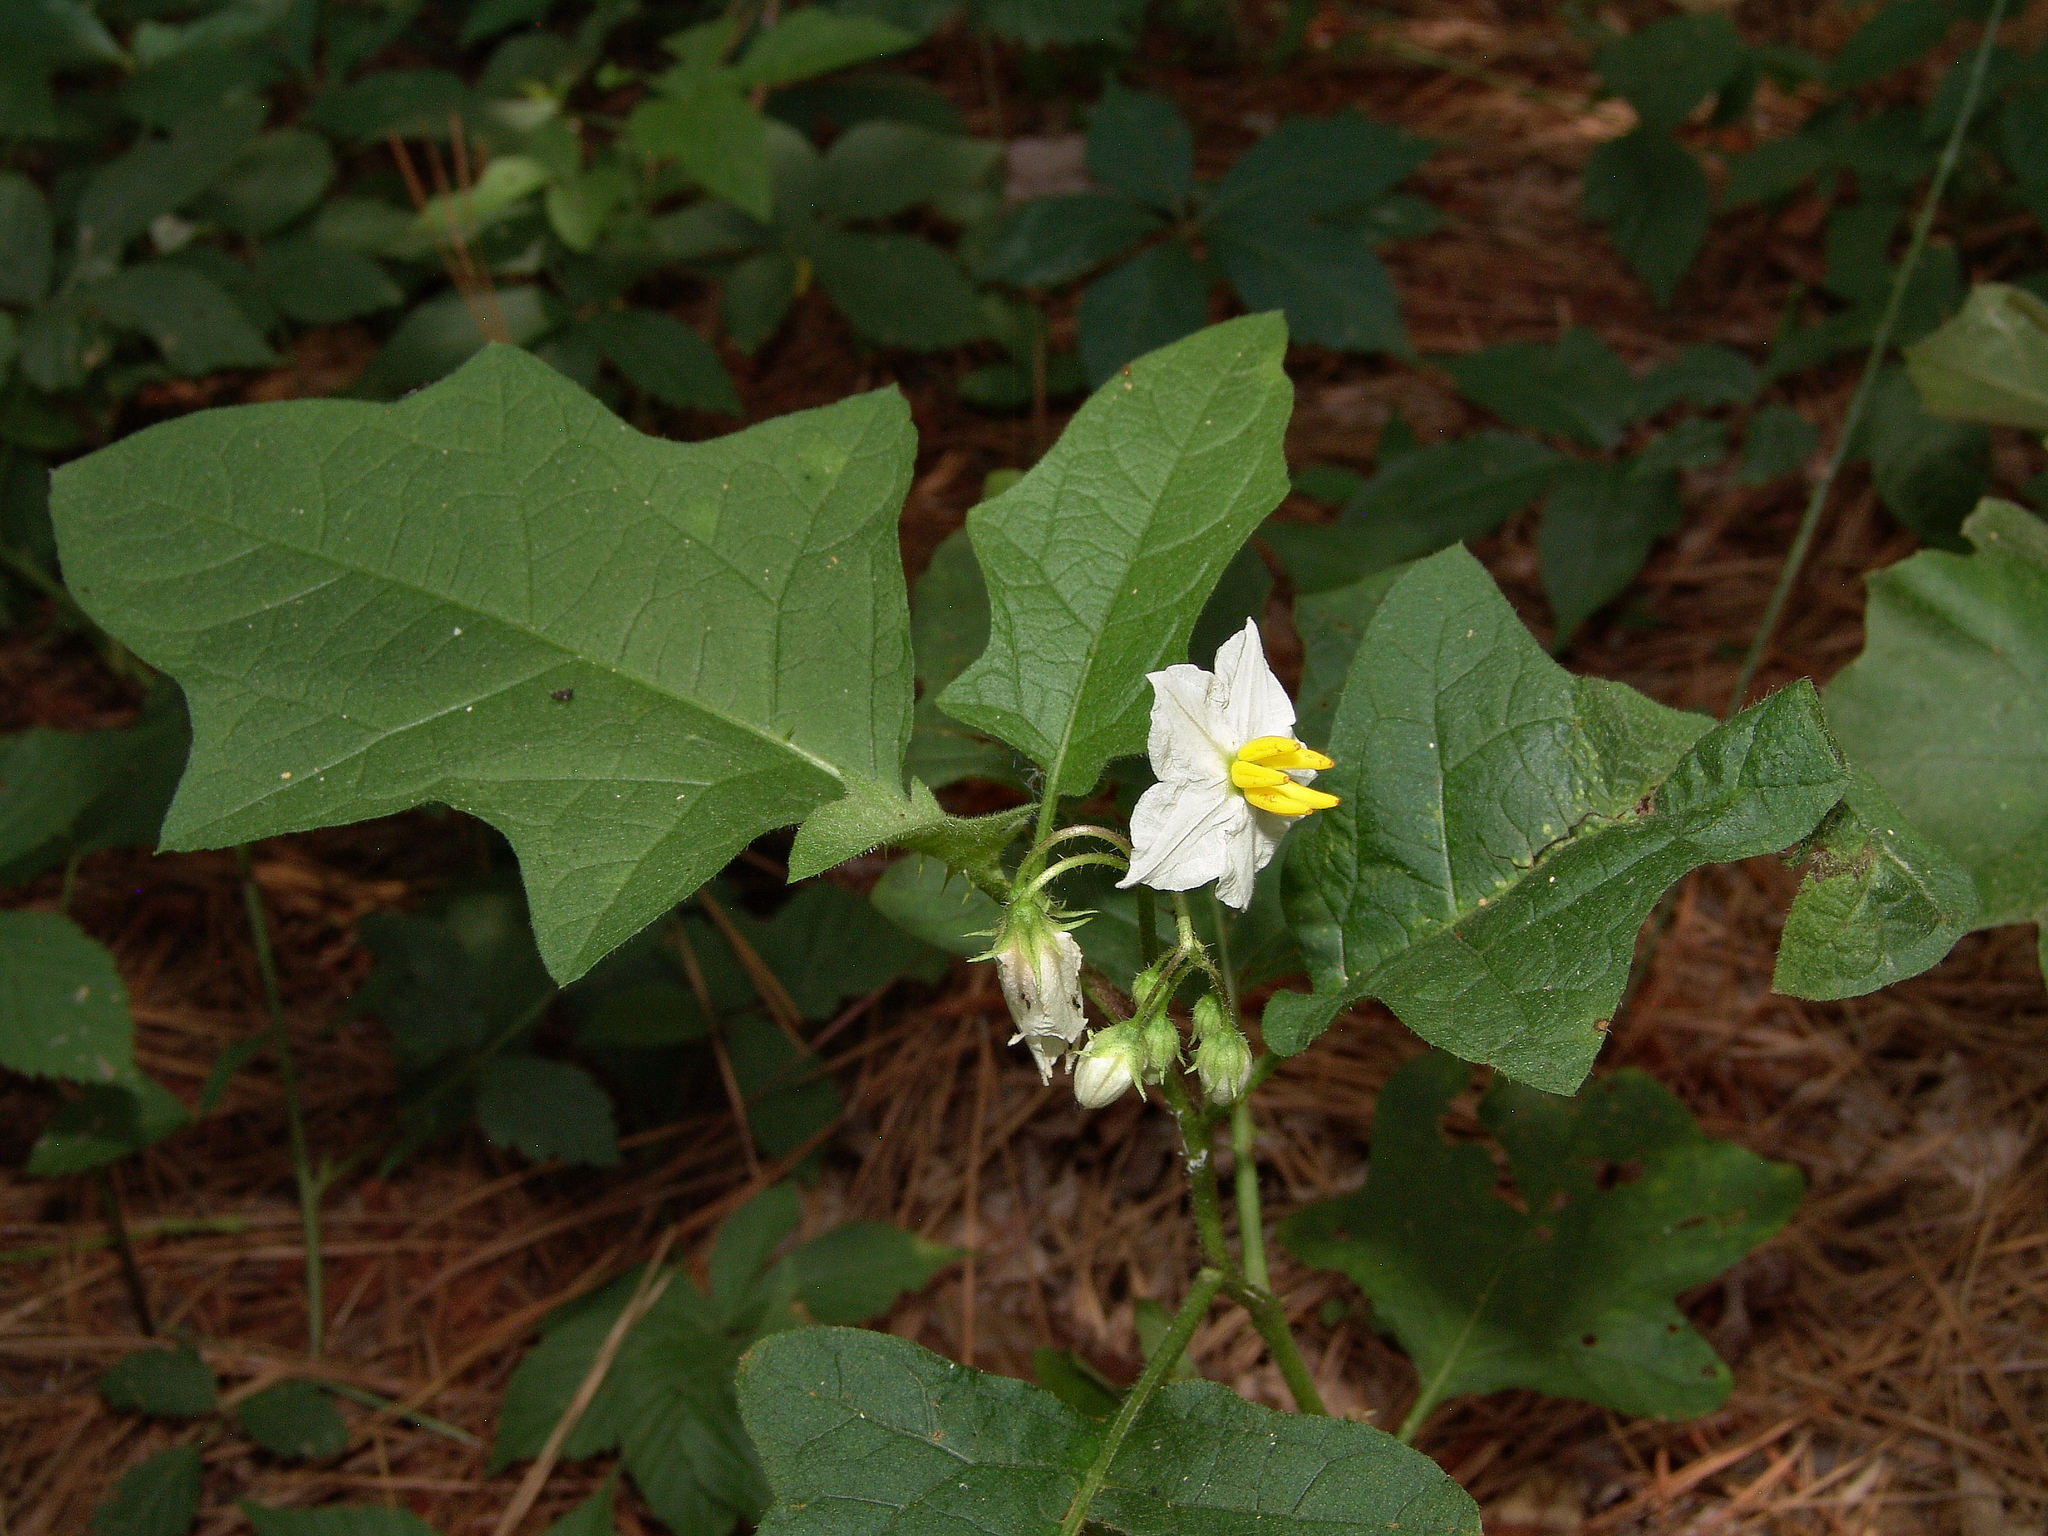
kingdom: Plantae
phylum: Tracheophyta
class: Magnoliopsida
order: Solanales
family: Solanaceae
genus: Solanum
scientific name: Solanum carolinense
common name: Horse-nettle
